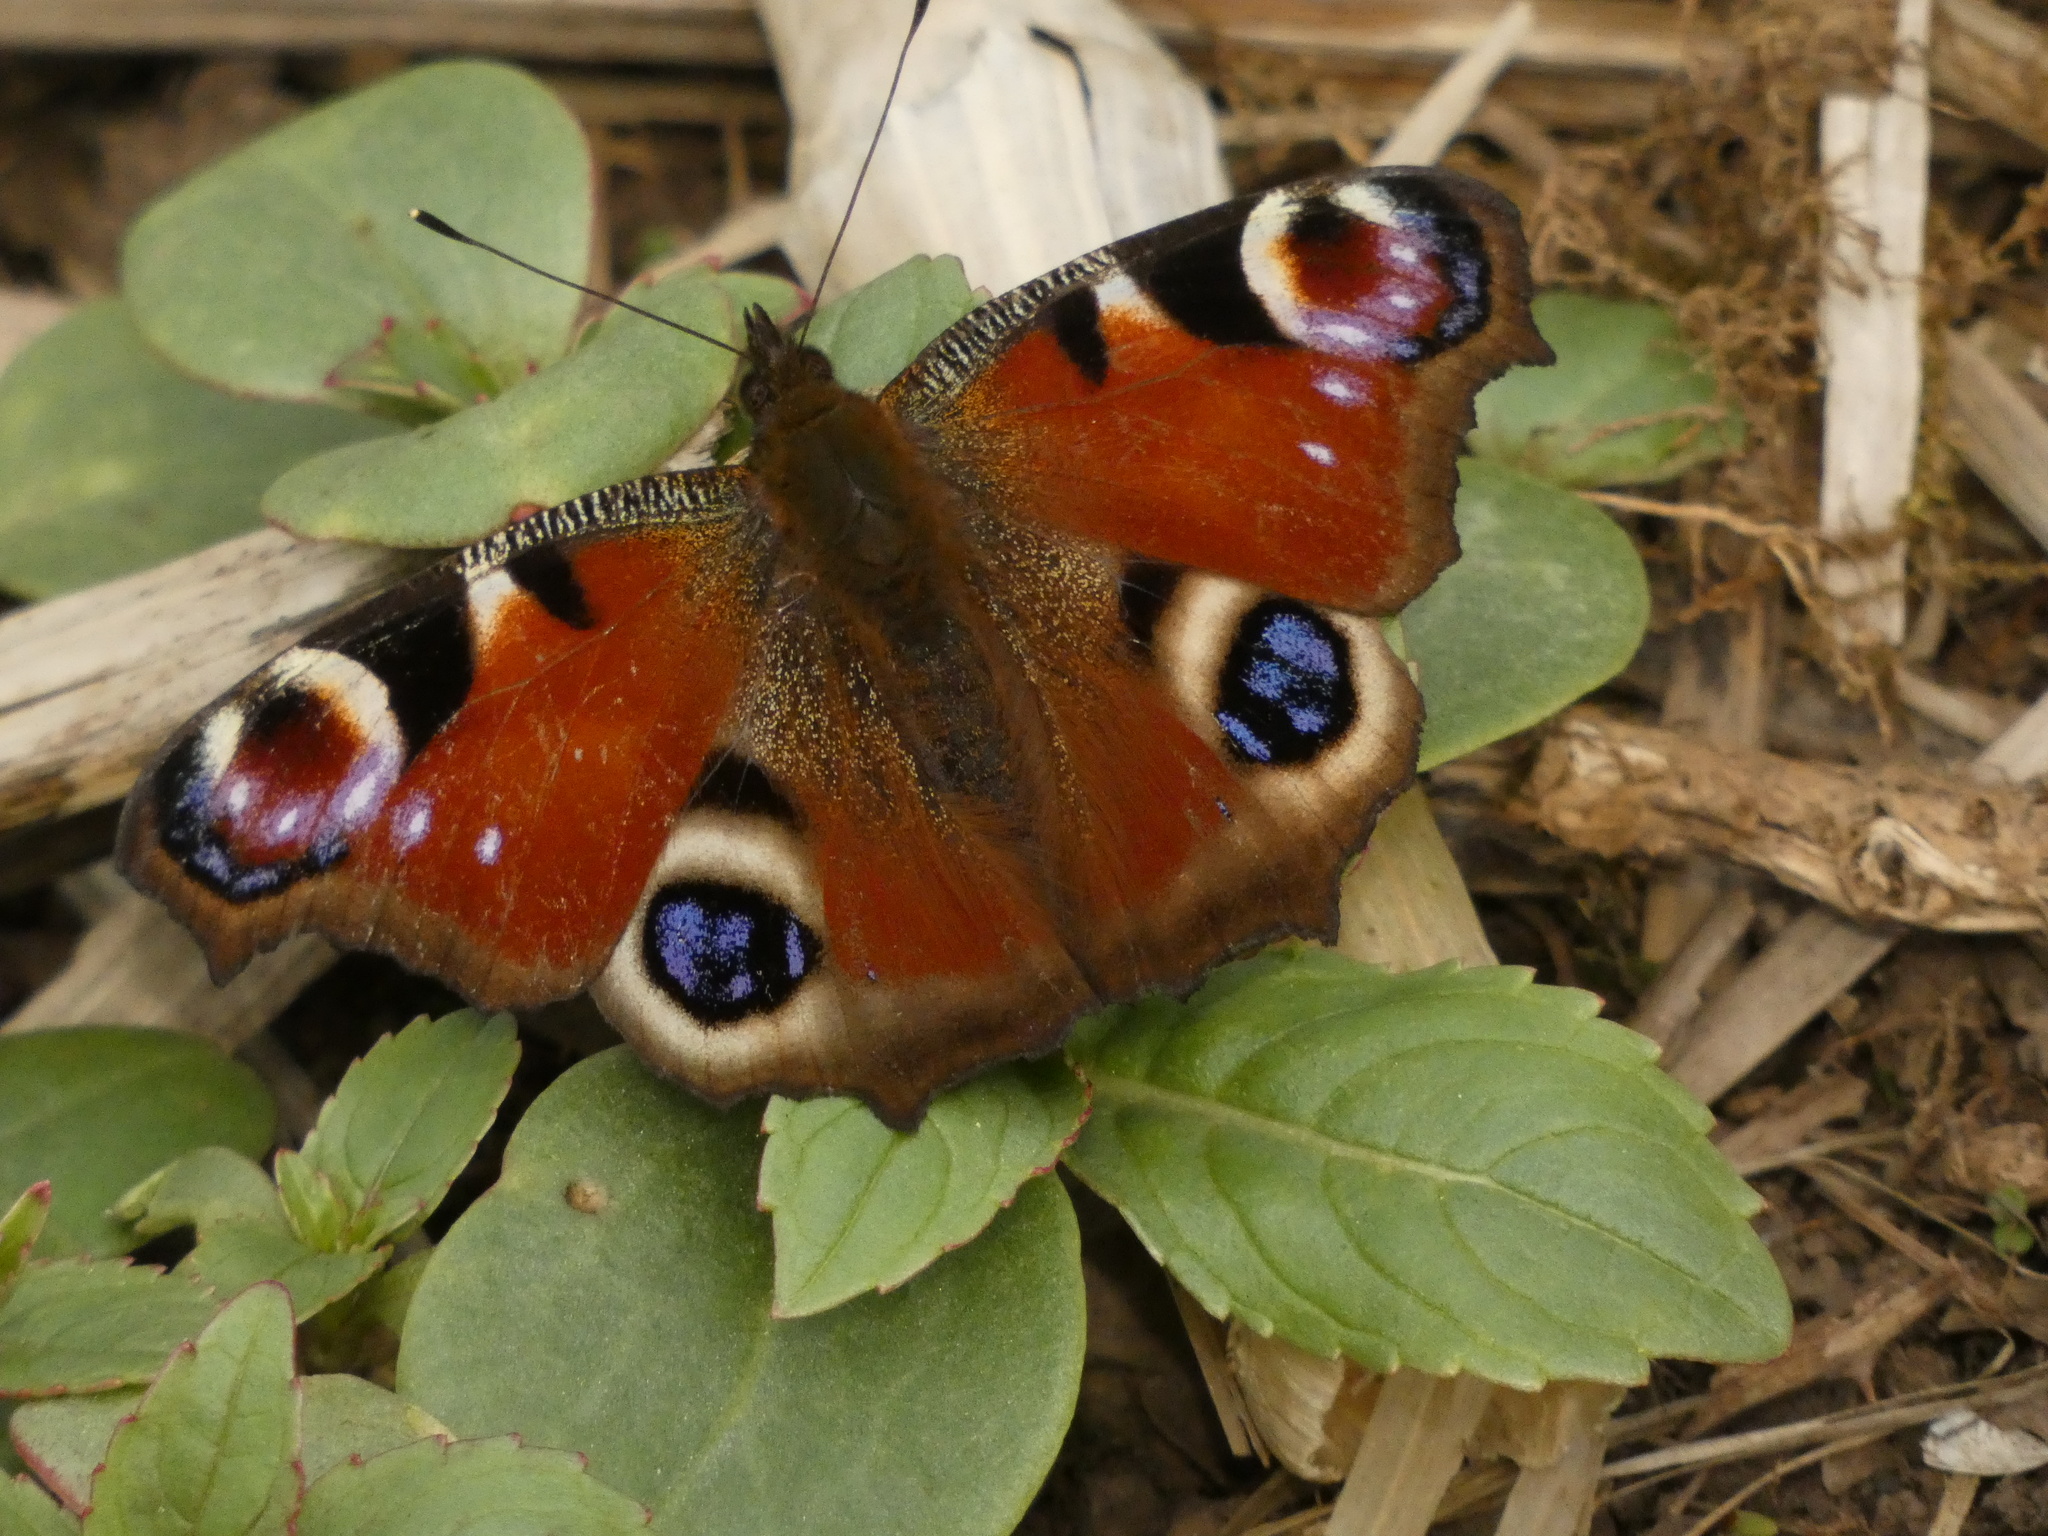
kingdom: Animalia
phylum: Arthropoda
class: Insecta
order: Lepidoptera
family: Nymphalidae
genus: Aglais
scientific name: Aglais io
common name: Peacock
